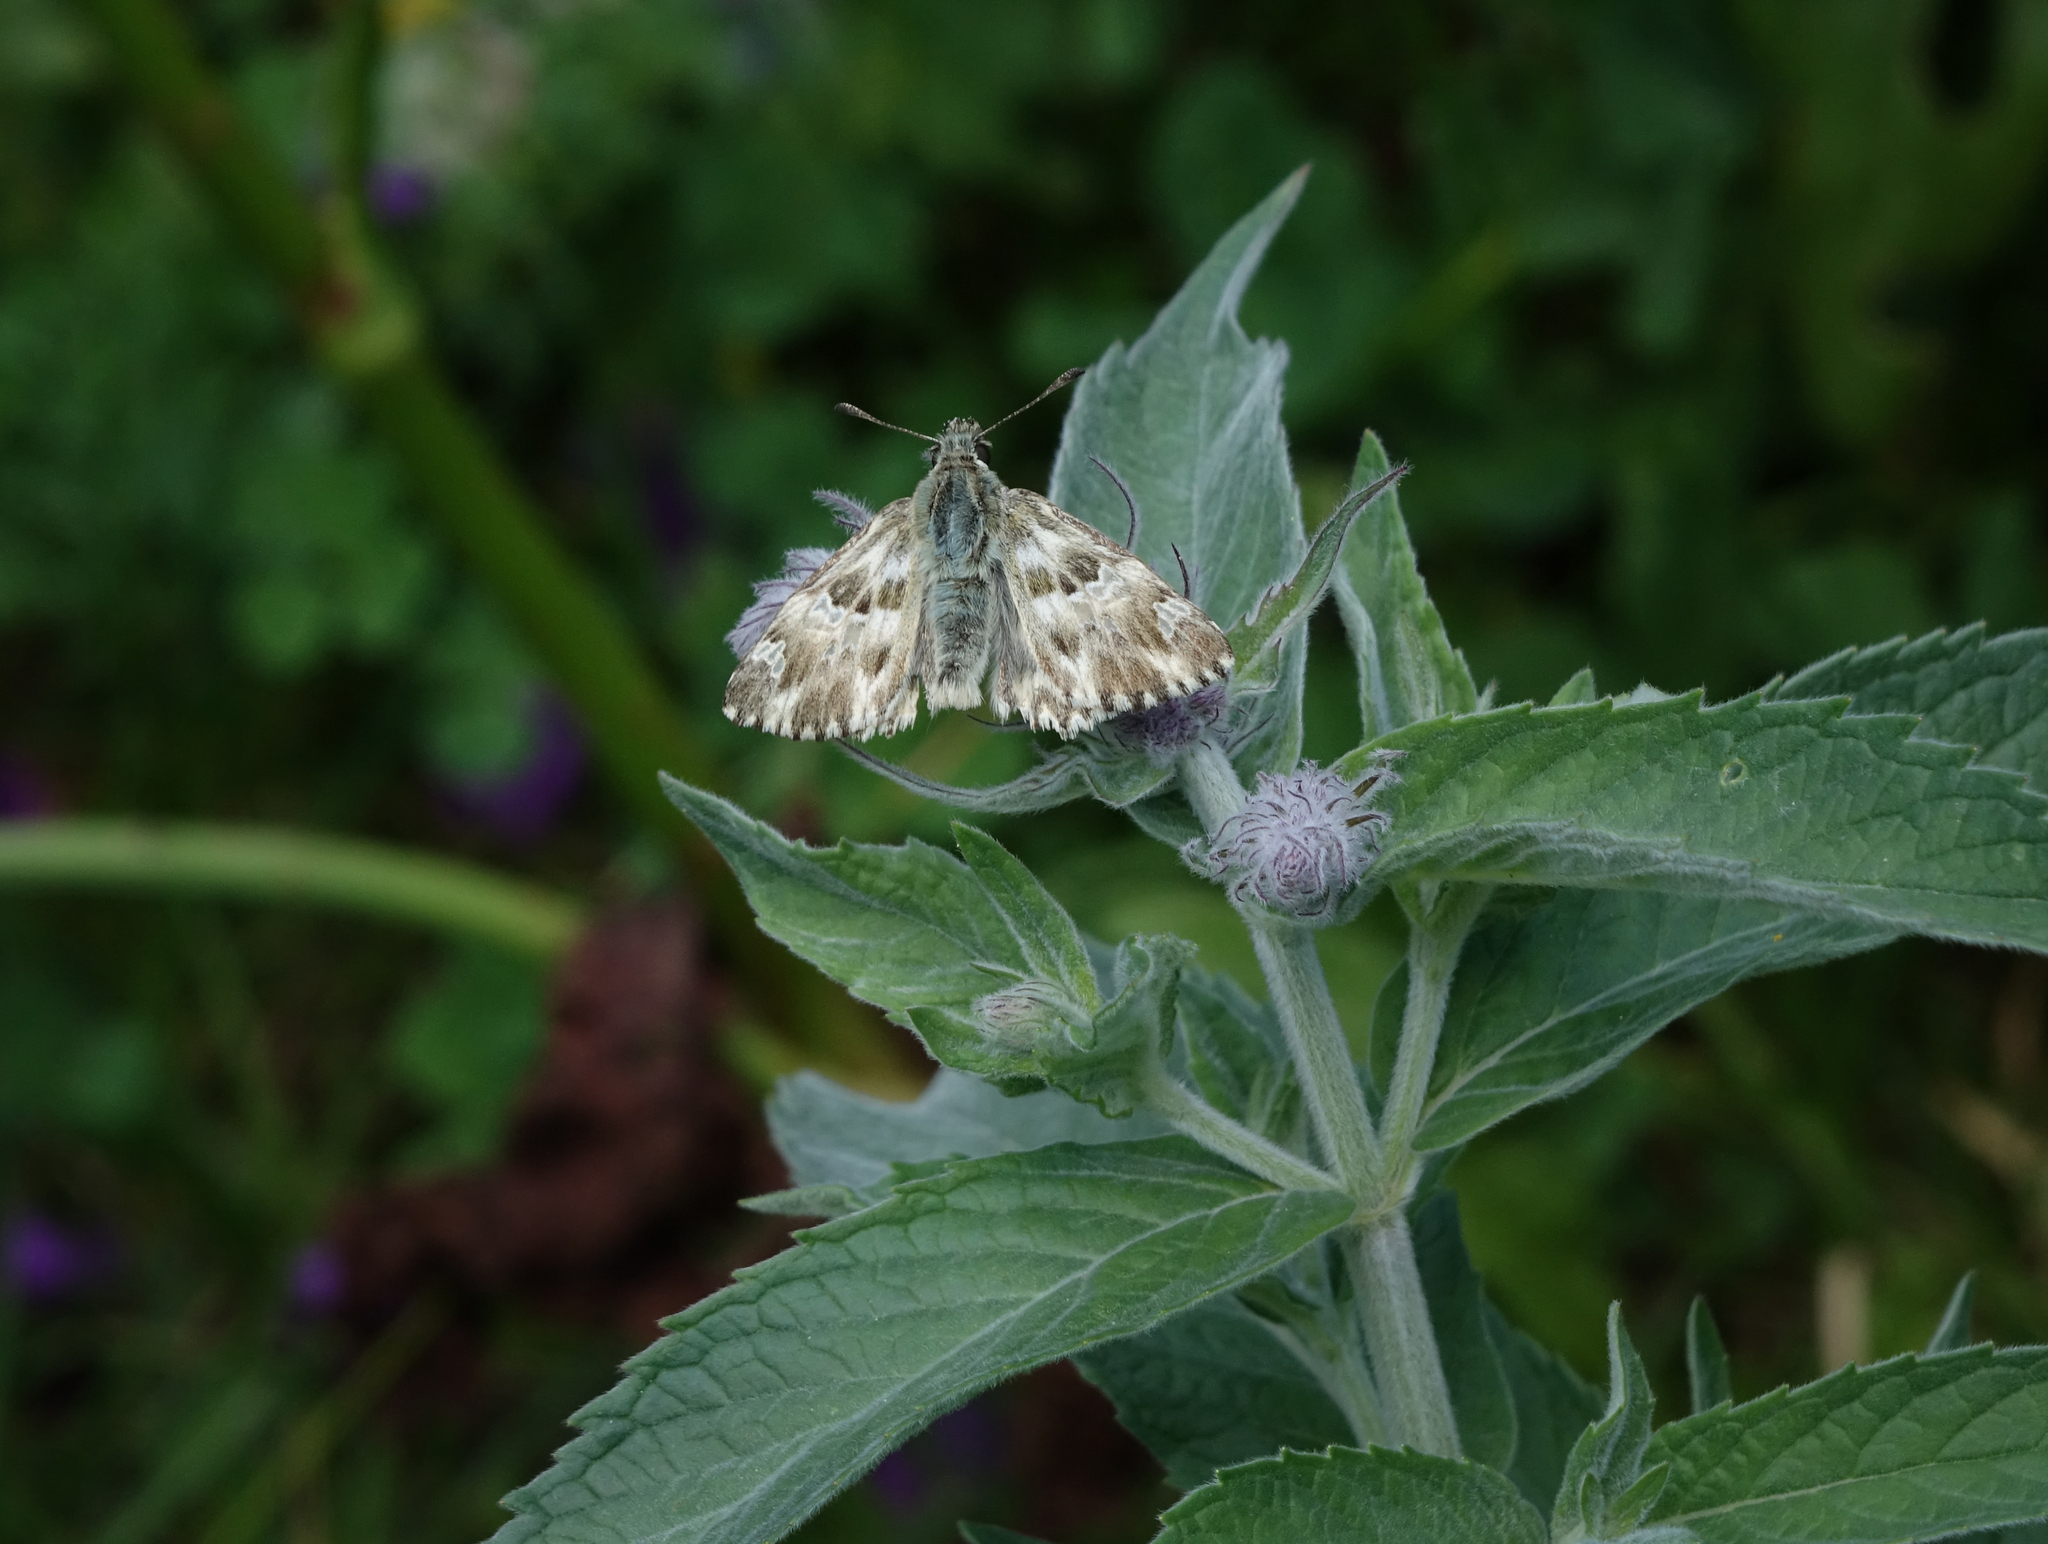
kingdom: Animalia
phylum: Arthropoda
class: Insecta
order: Lepidoptera
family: Hesperiidae
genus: Carcharodus
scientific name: Carcharodus lavatherae
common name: Marbled skipper
